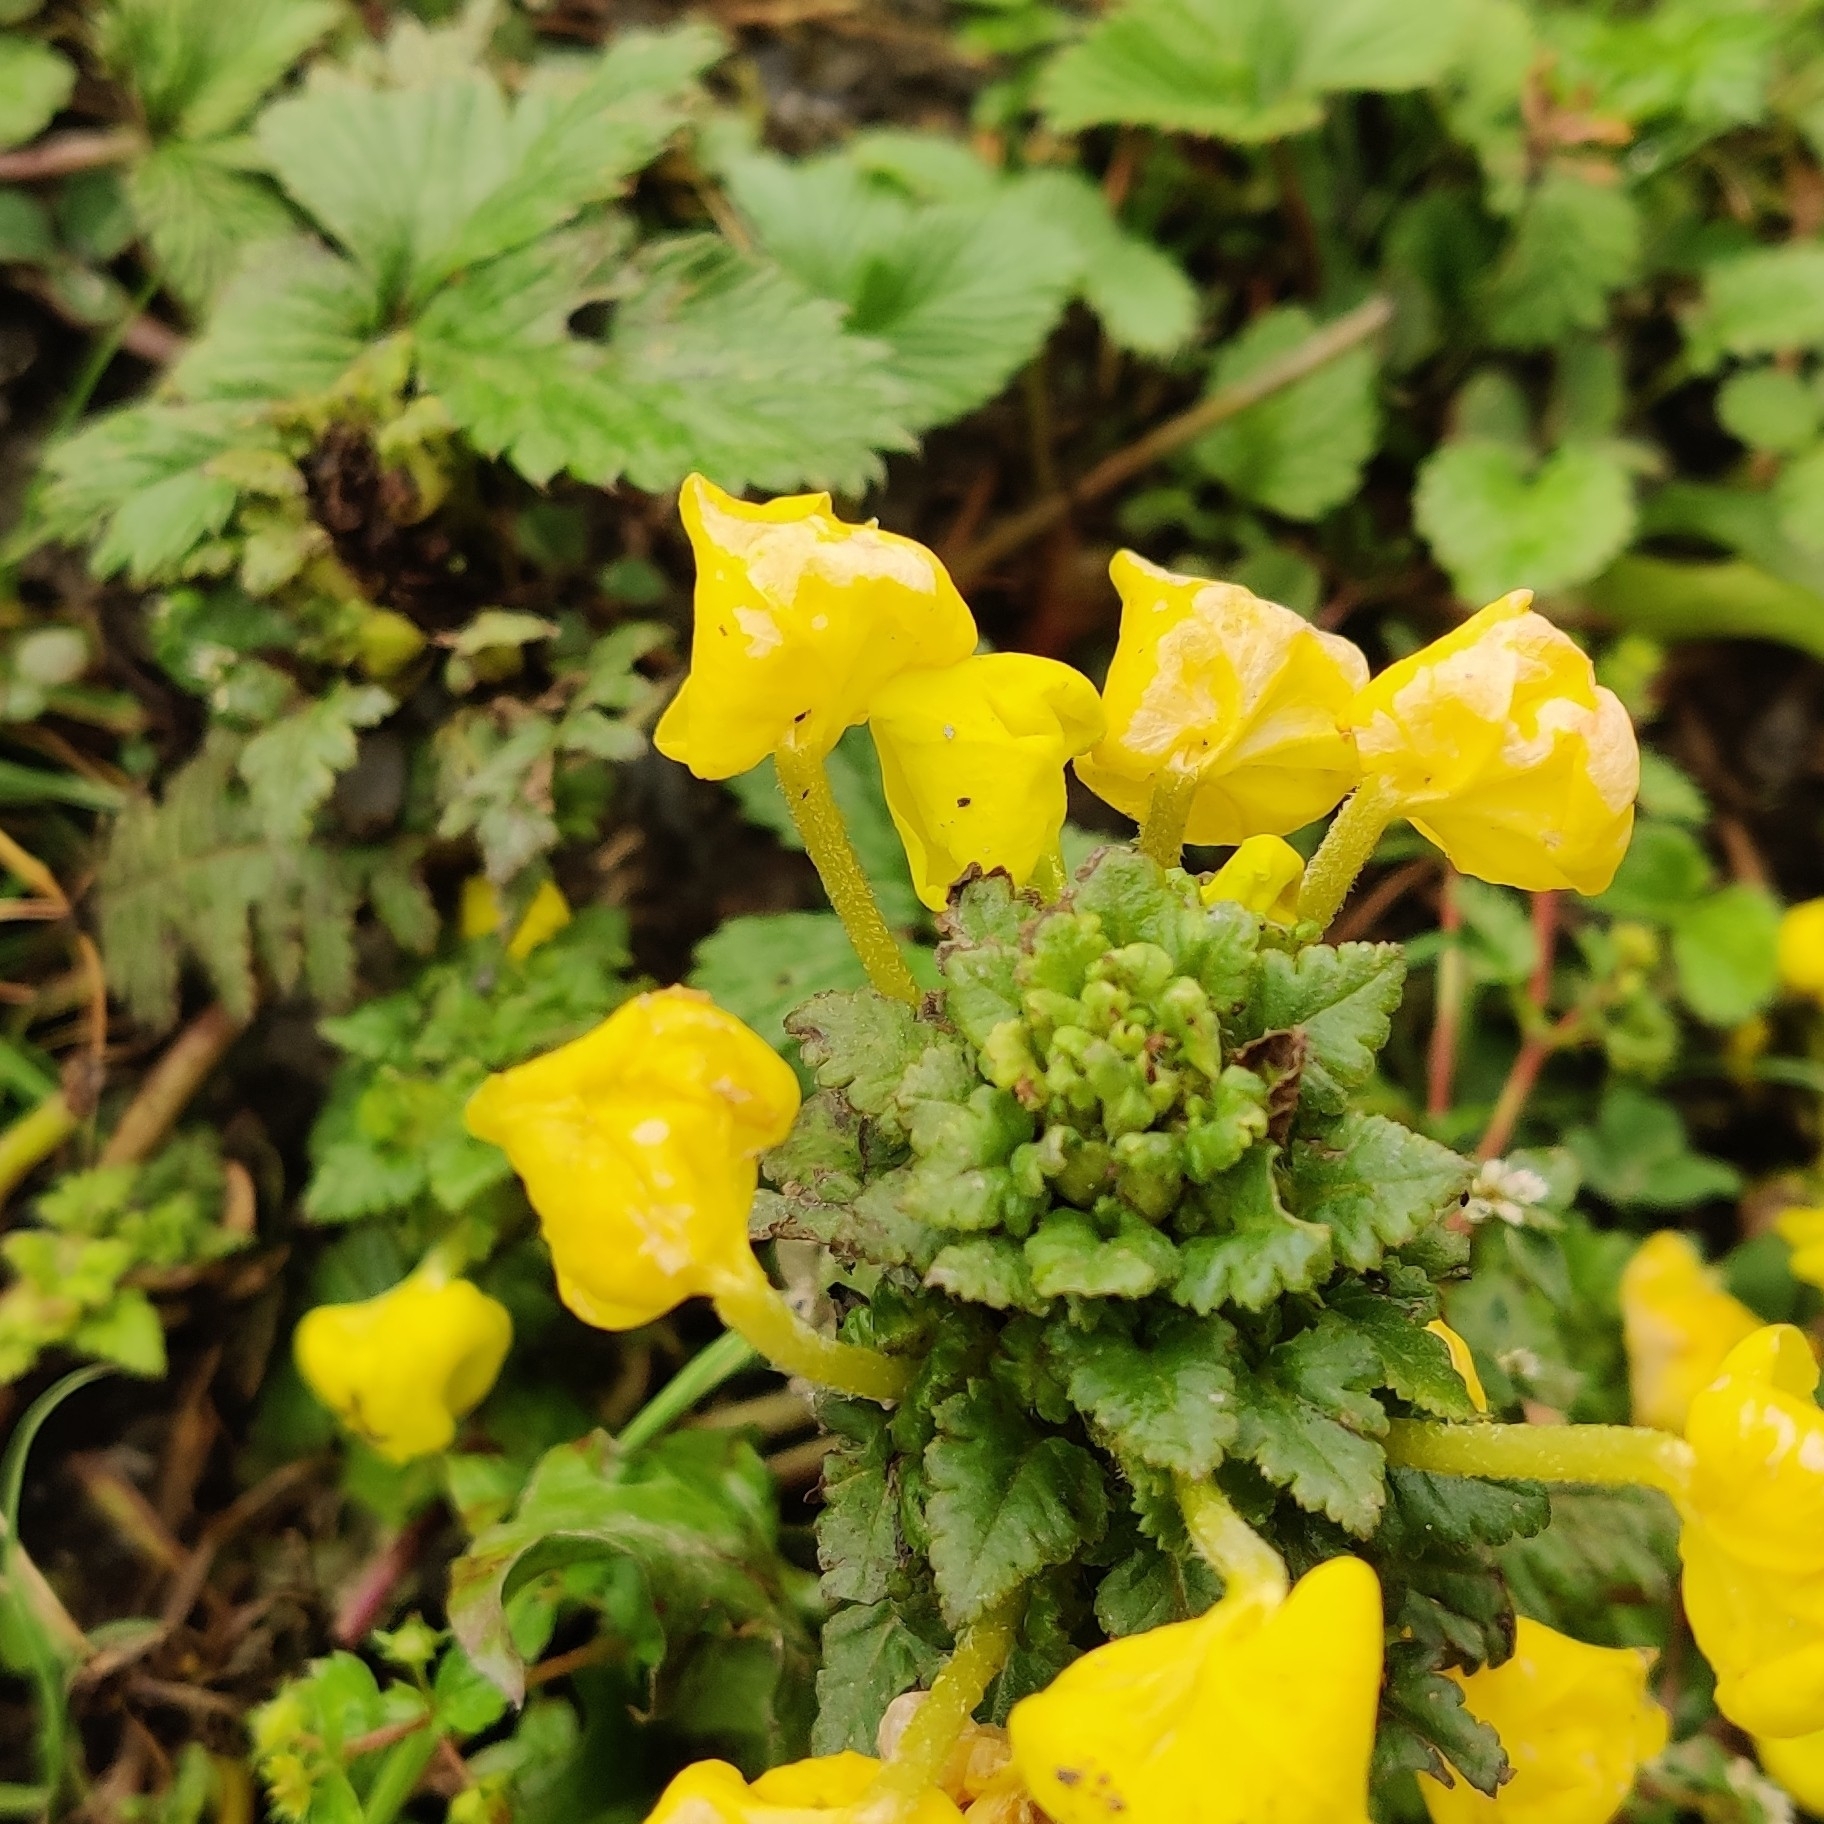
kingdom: Plantae
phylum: Tracheophyta
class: Magnoliopsida
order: Lamiales
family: Orobanchaceae
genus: Pedicularis
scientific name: Pedicularis hoffmeisteri
